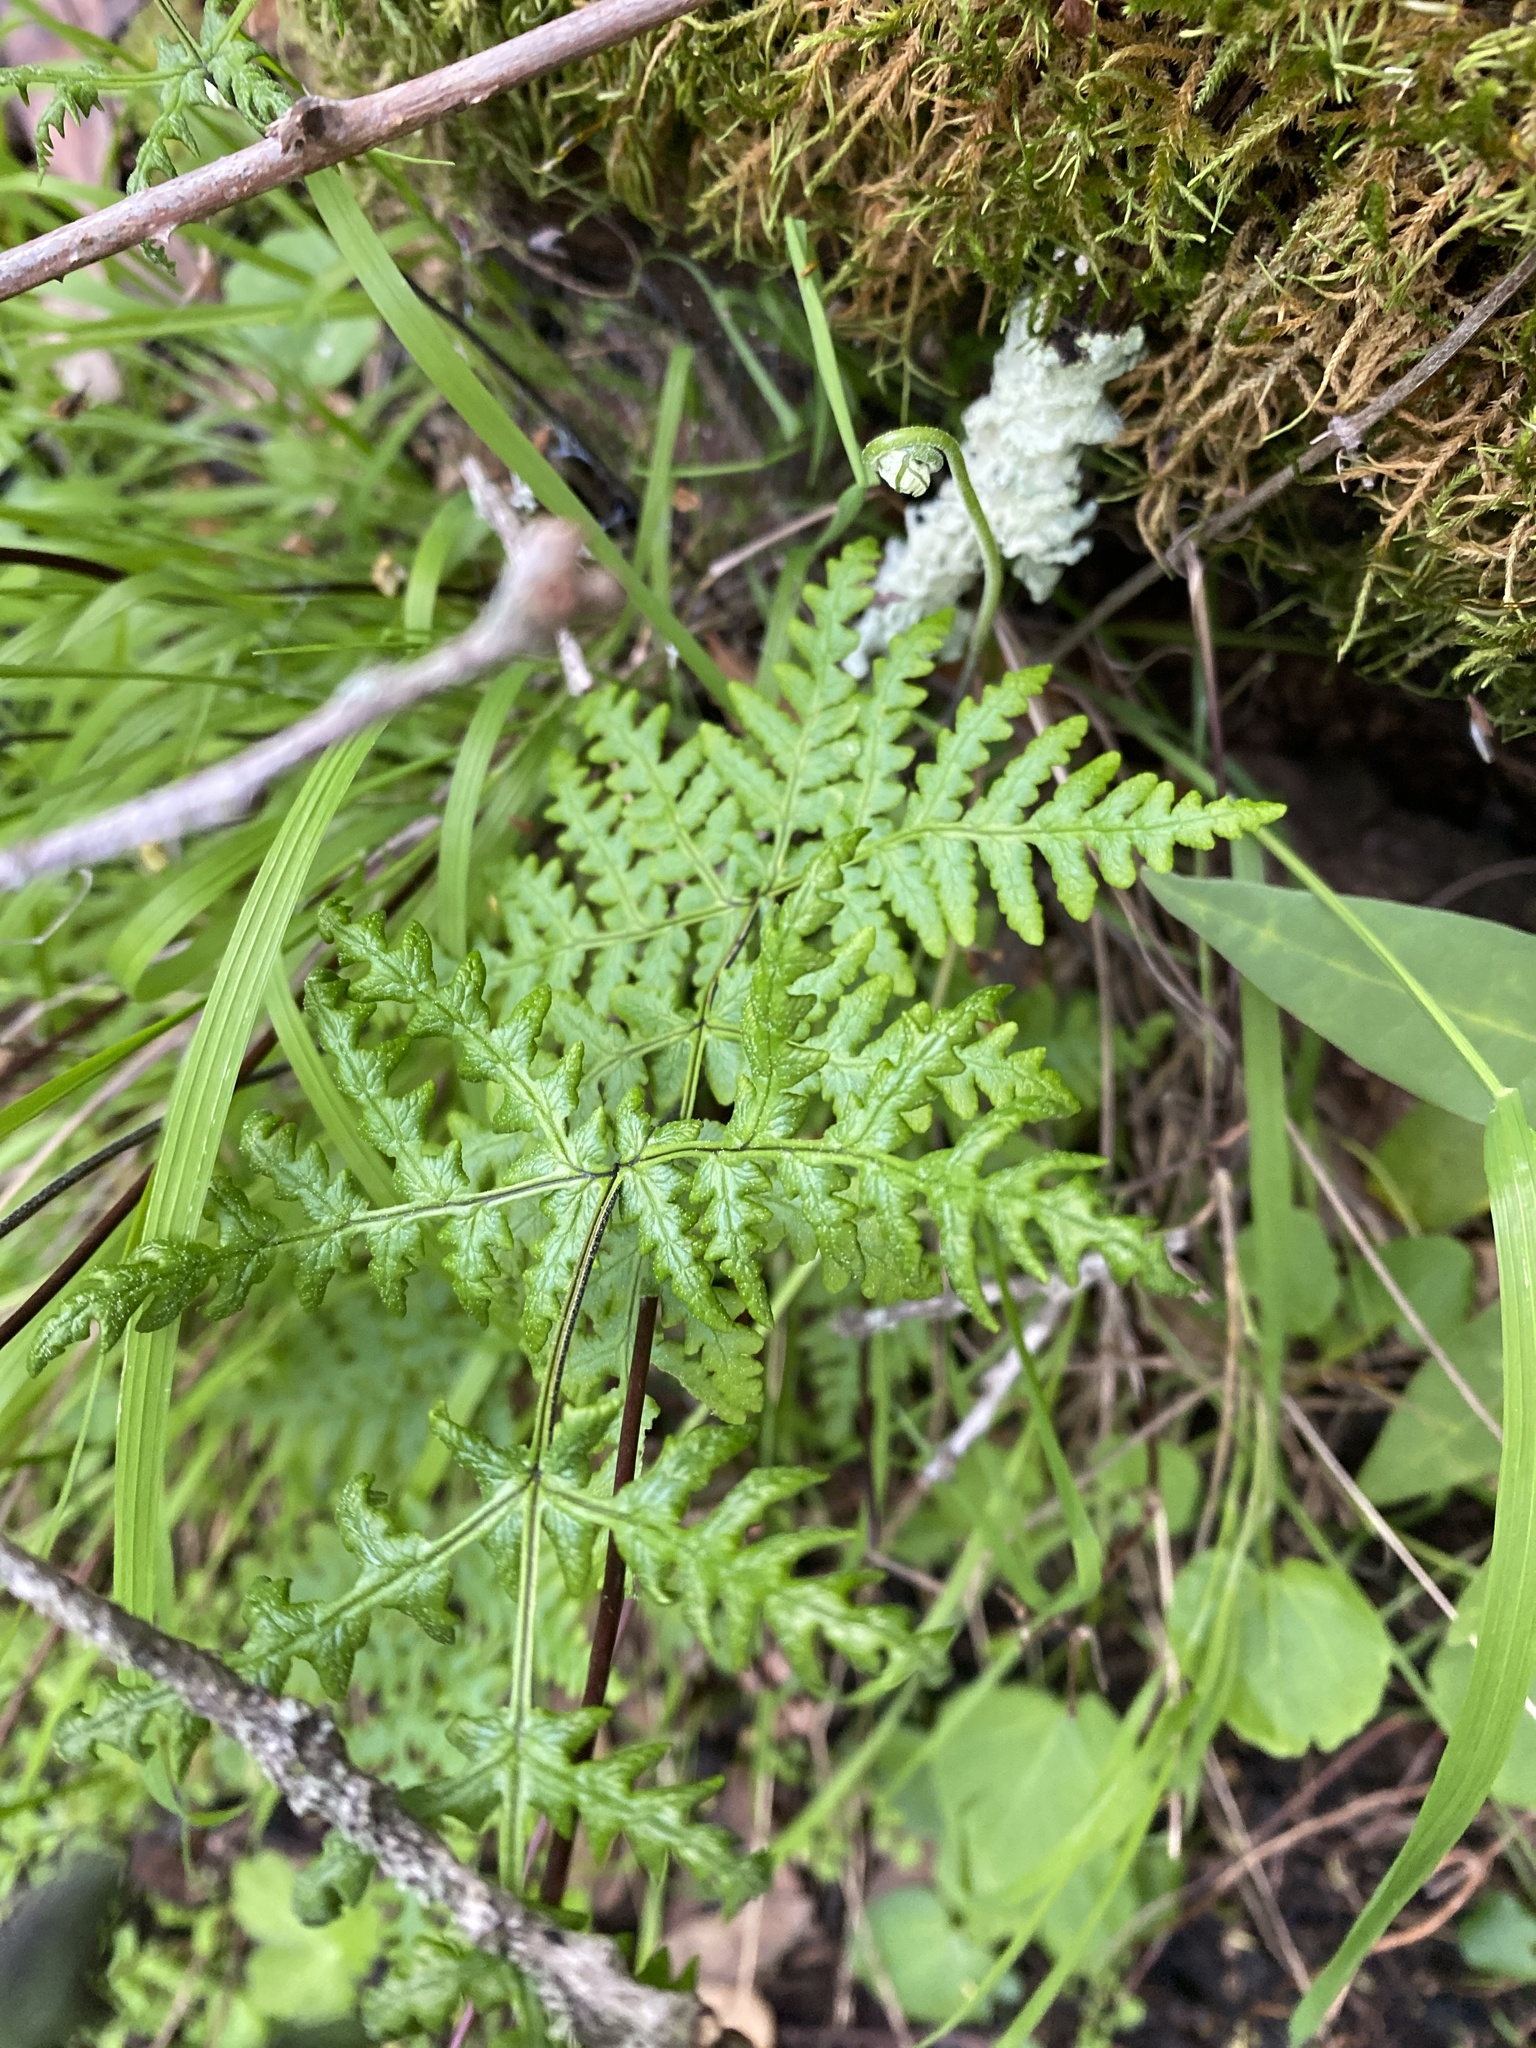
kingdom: Plantae
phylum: Tracheophyta
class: Polypodiopsida
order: Polypodiales
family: Pteridaceae
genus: Pentagramma
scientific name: Pentagramma triangularis
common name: Gold fern
